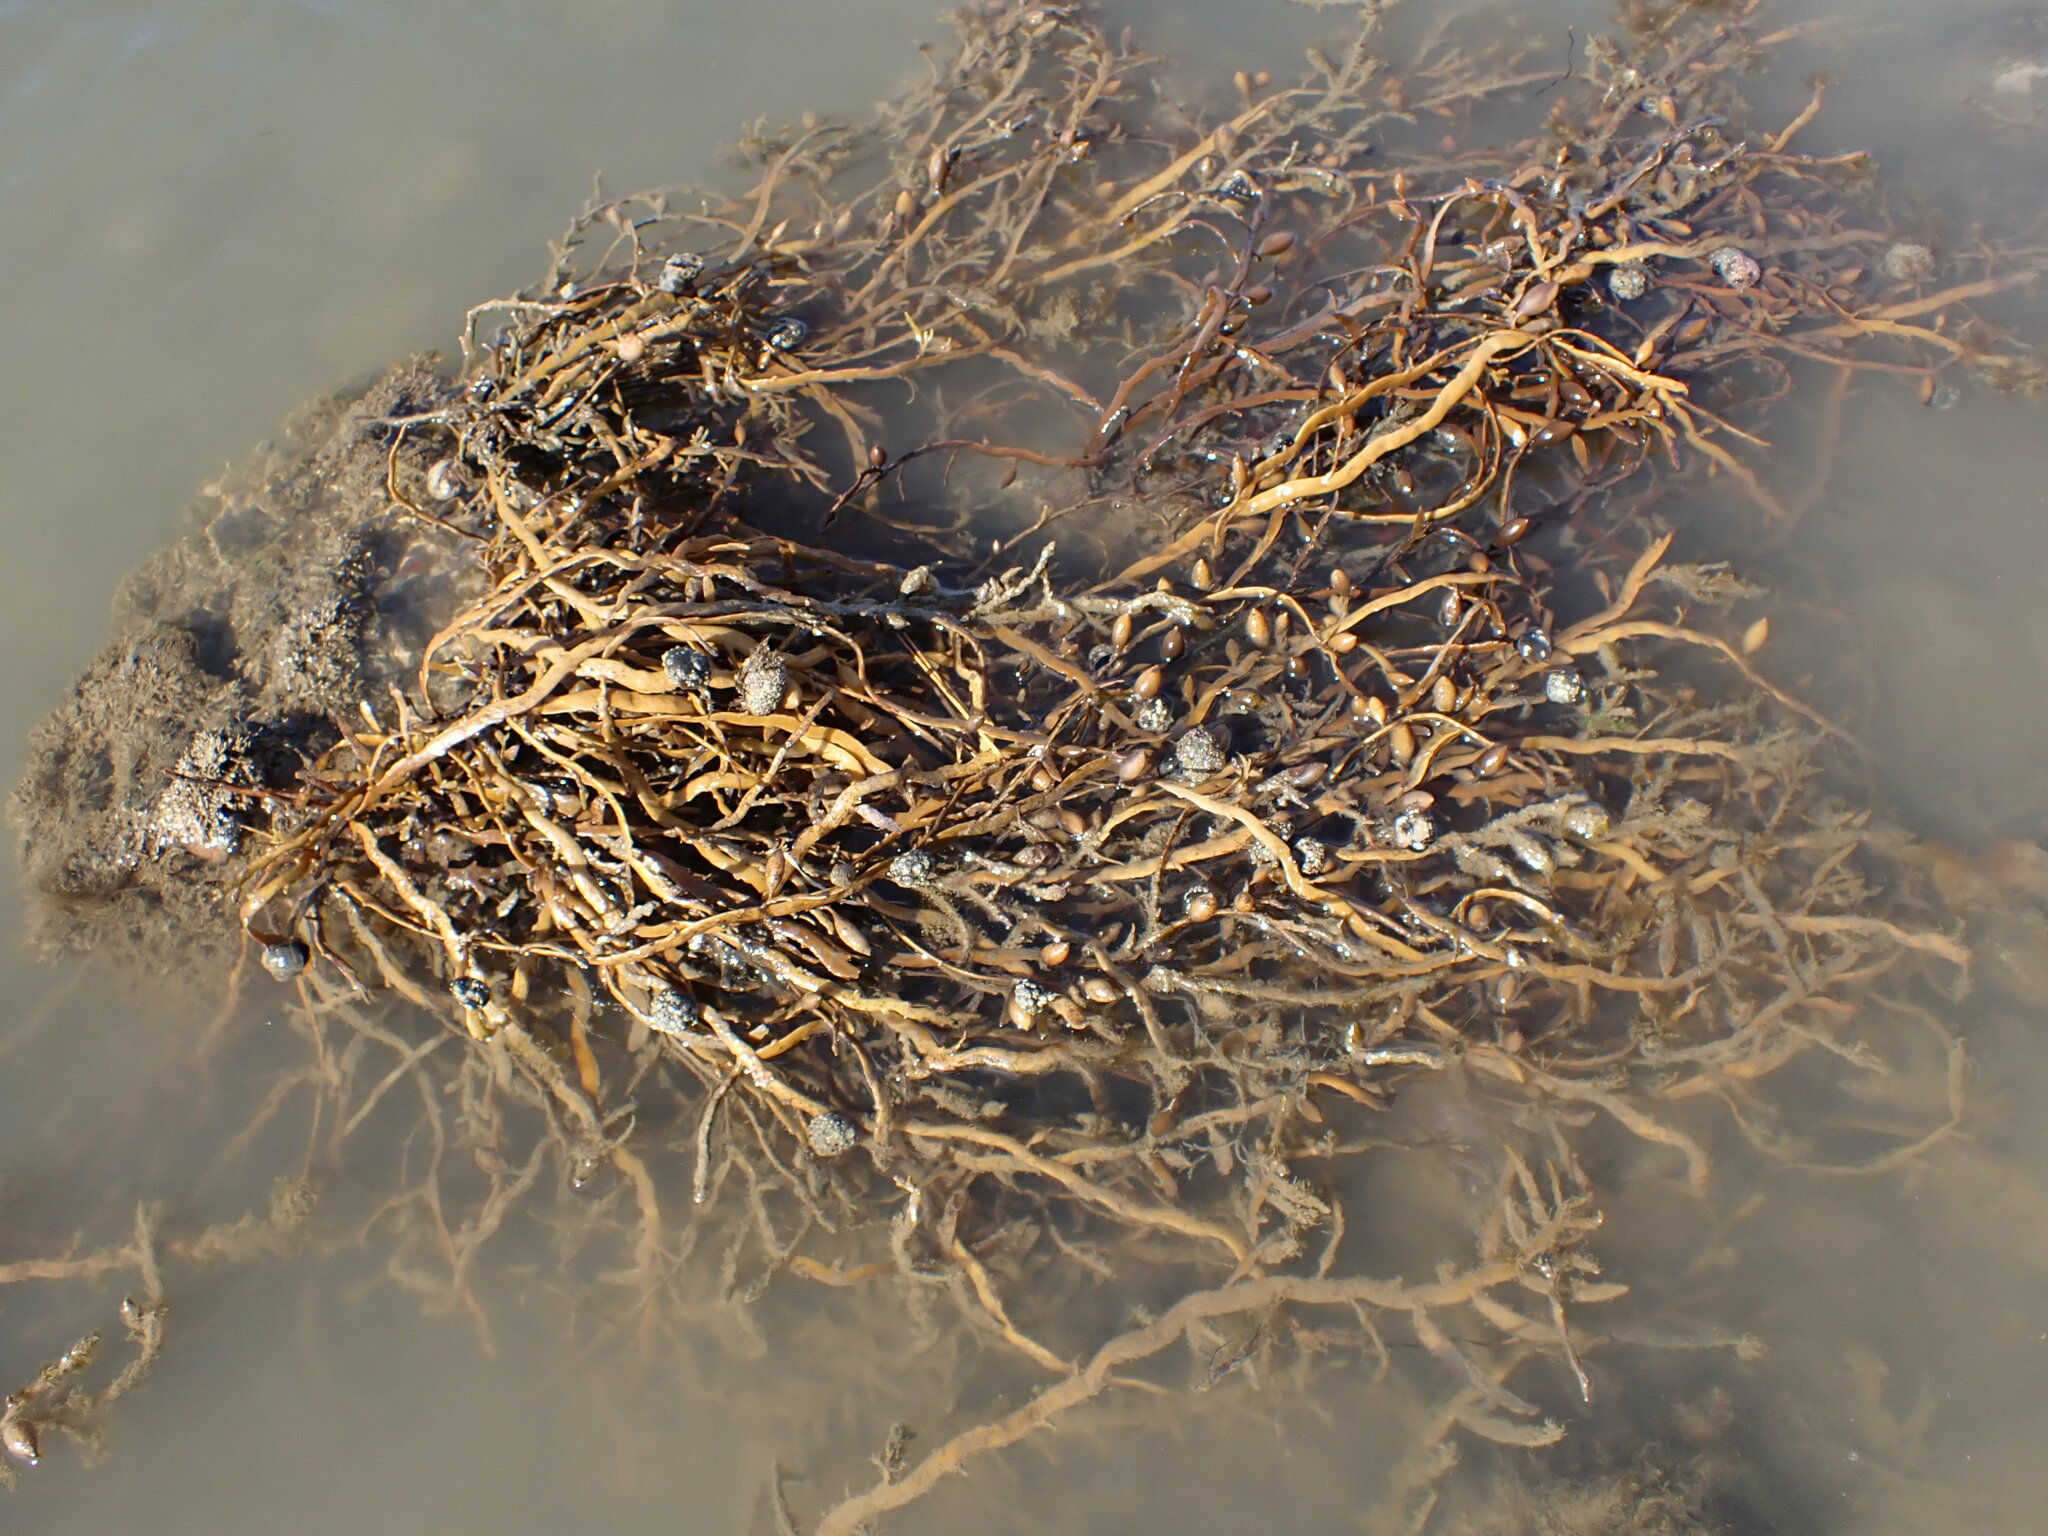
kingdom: Chromista
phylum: Ochrophyta
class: Phaeophyceae
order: Fucales
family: Sargassaceae
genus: Carpophyllum
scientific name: Carpophyllum maschalocarpum
